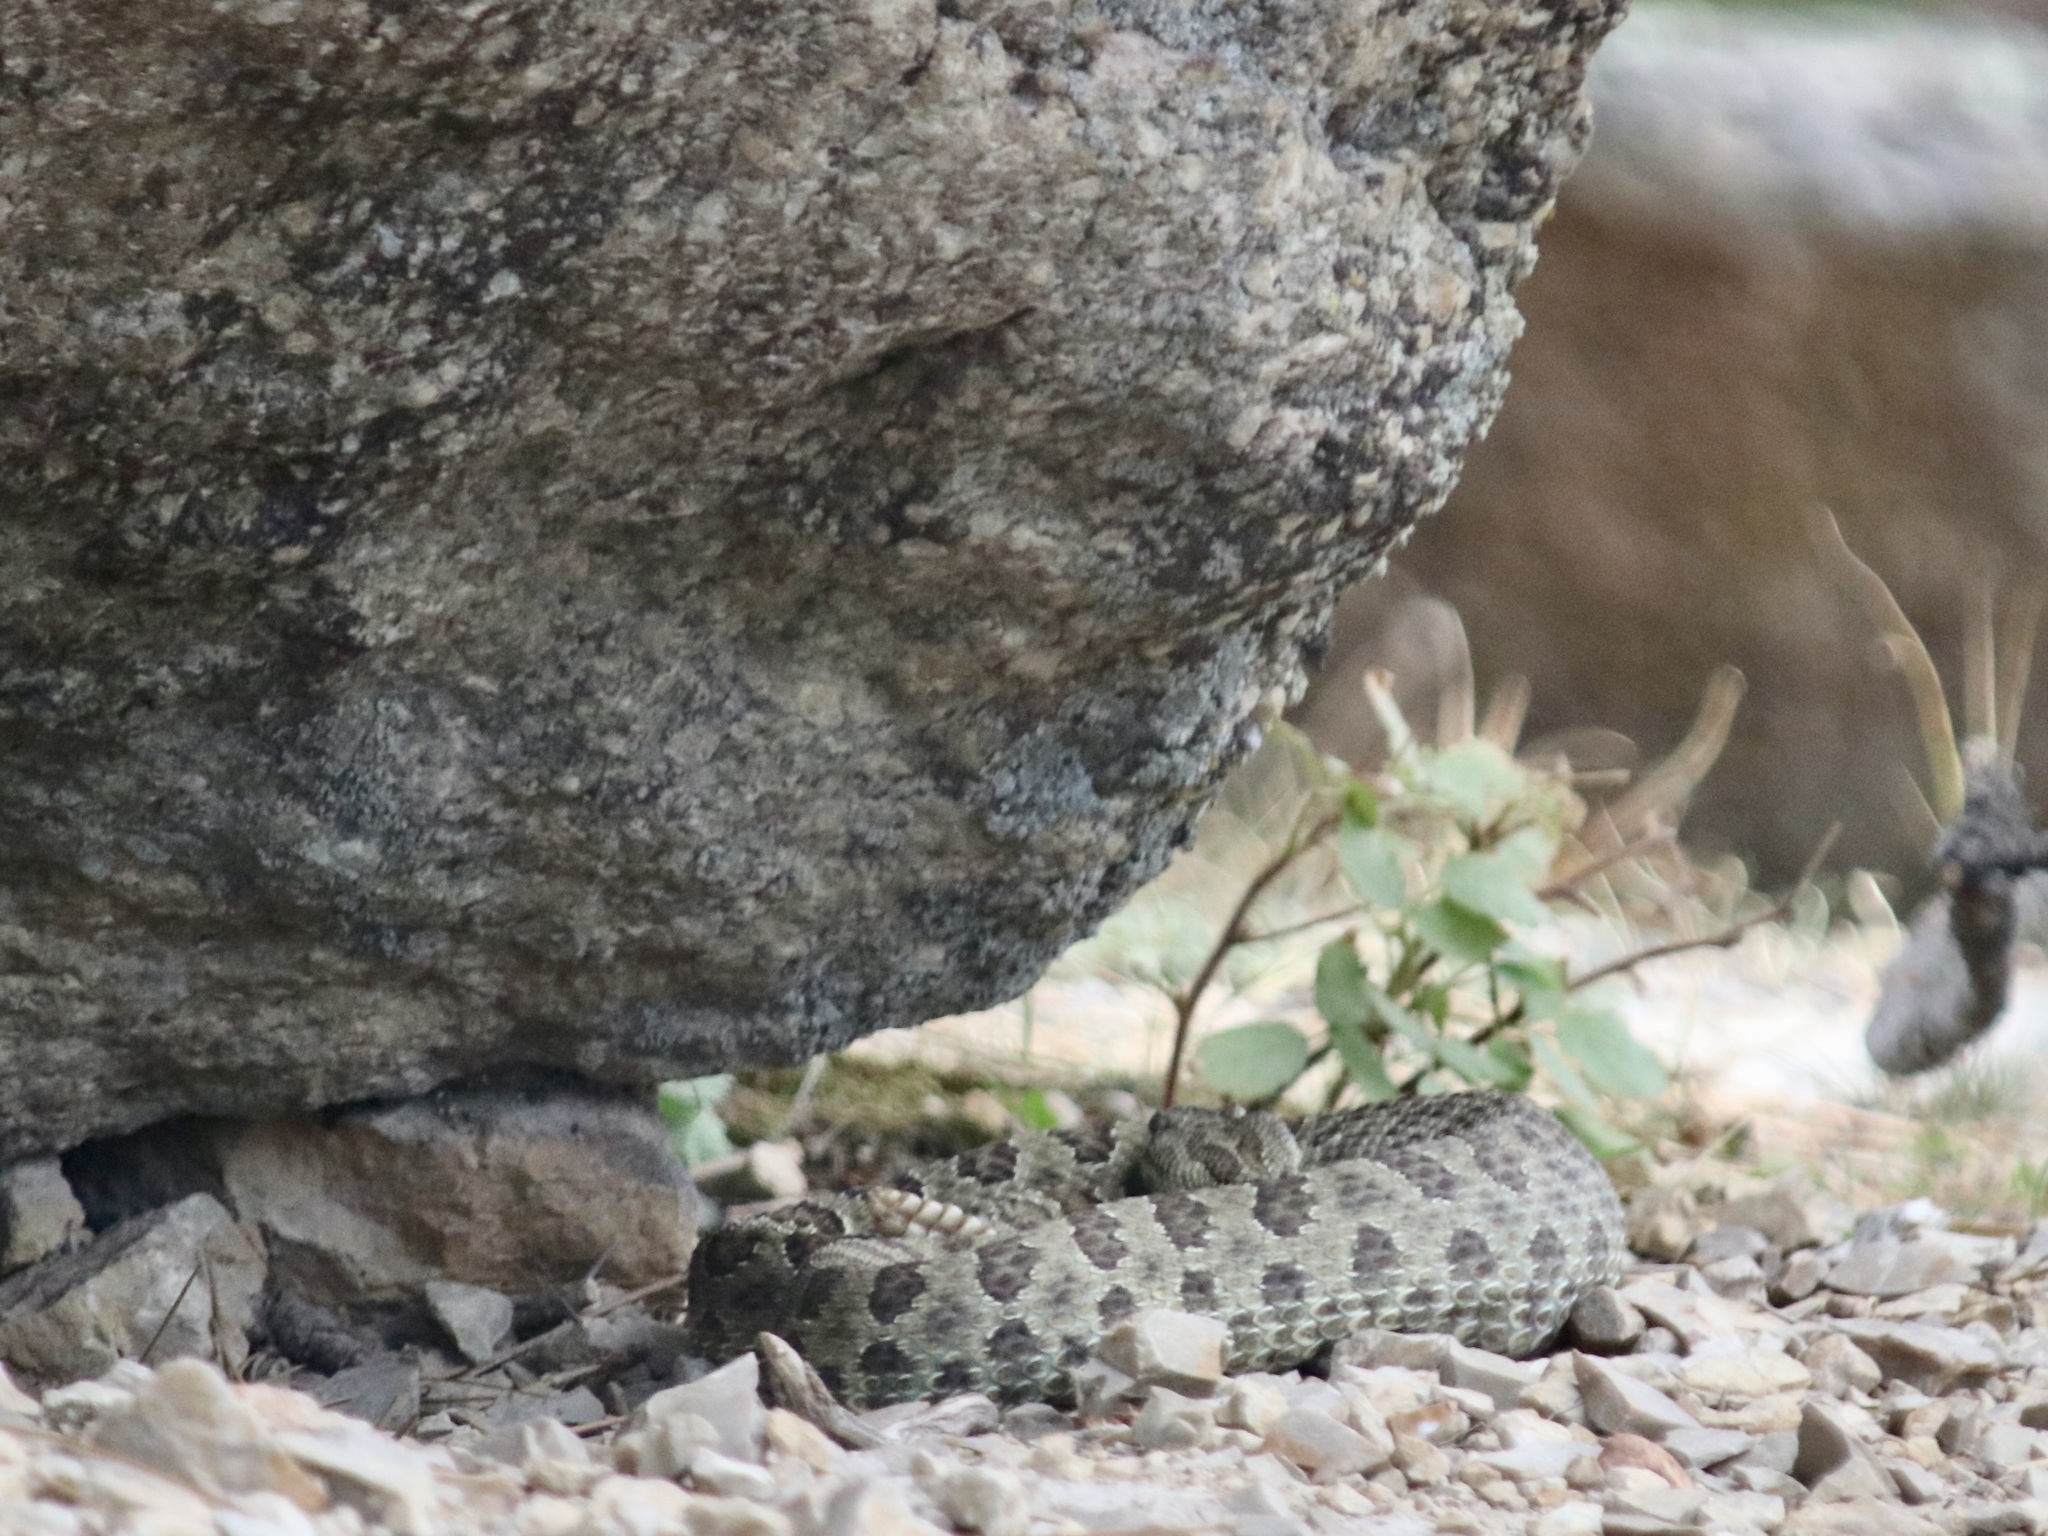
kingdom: Animalia
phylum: Chordata
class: Squamata
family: Viperidae
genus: Crotalus
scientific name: Crotalus viridis
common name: Prairie rattlesnake
